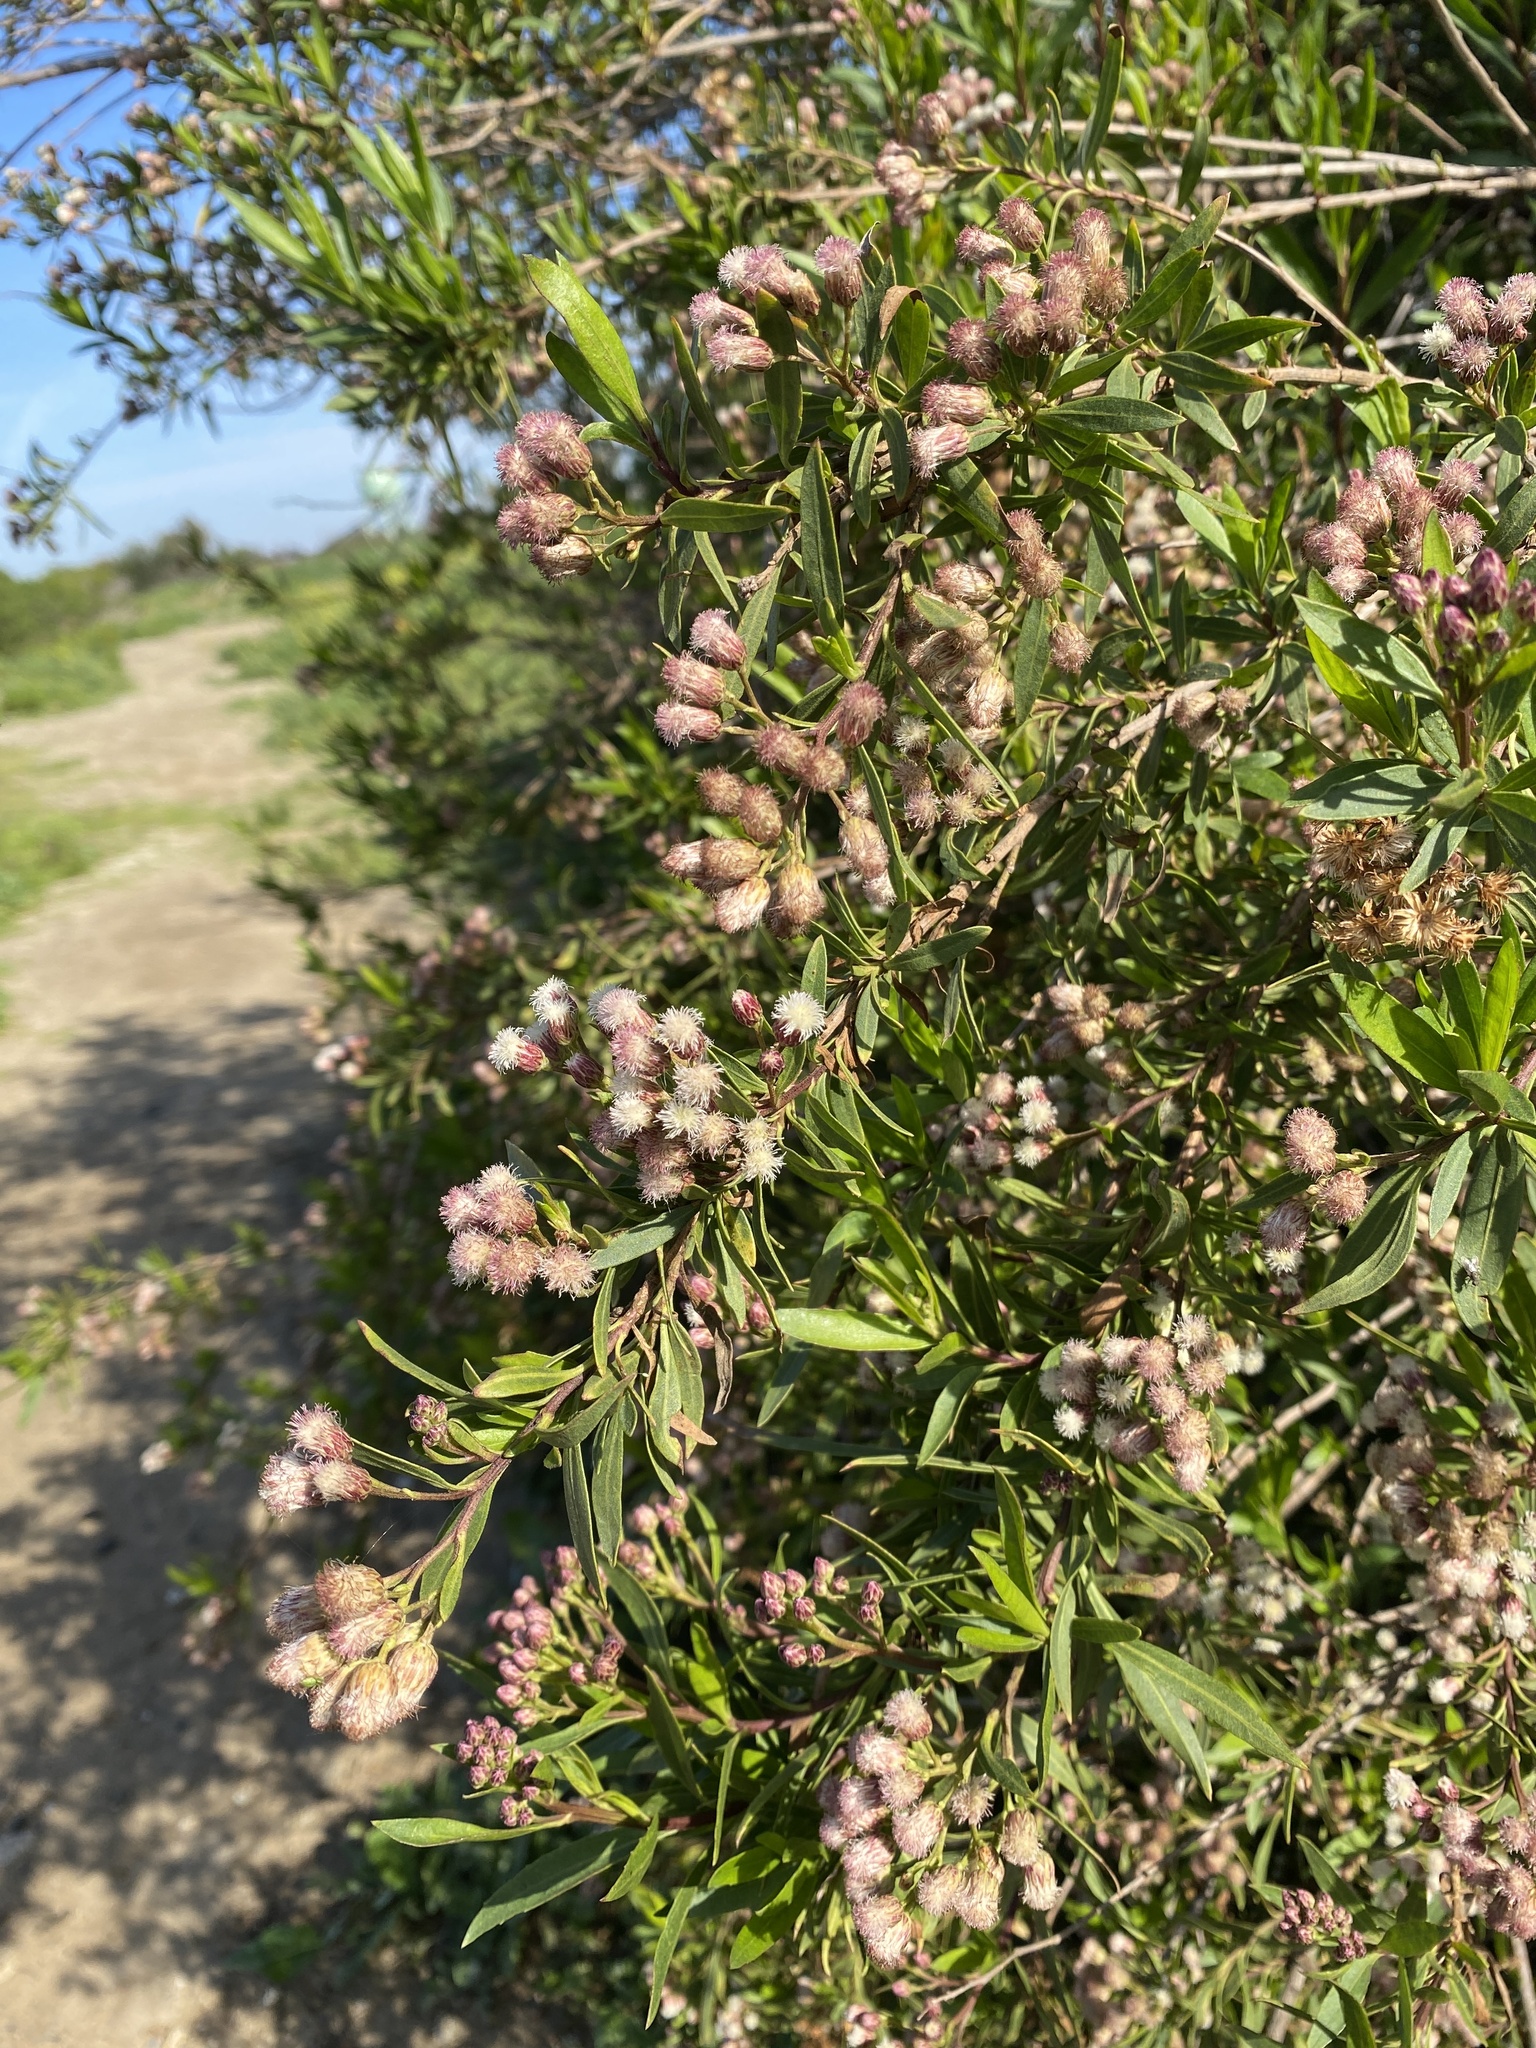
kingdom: Plantae
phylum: Tracheophyta
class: Magnoliopsida
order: Asterales
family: Asteraceae
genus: Baccharis
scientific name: Baccharis salicifolia
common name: Sticky baccharis
